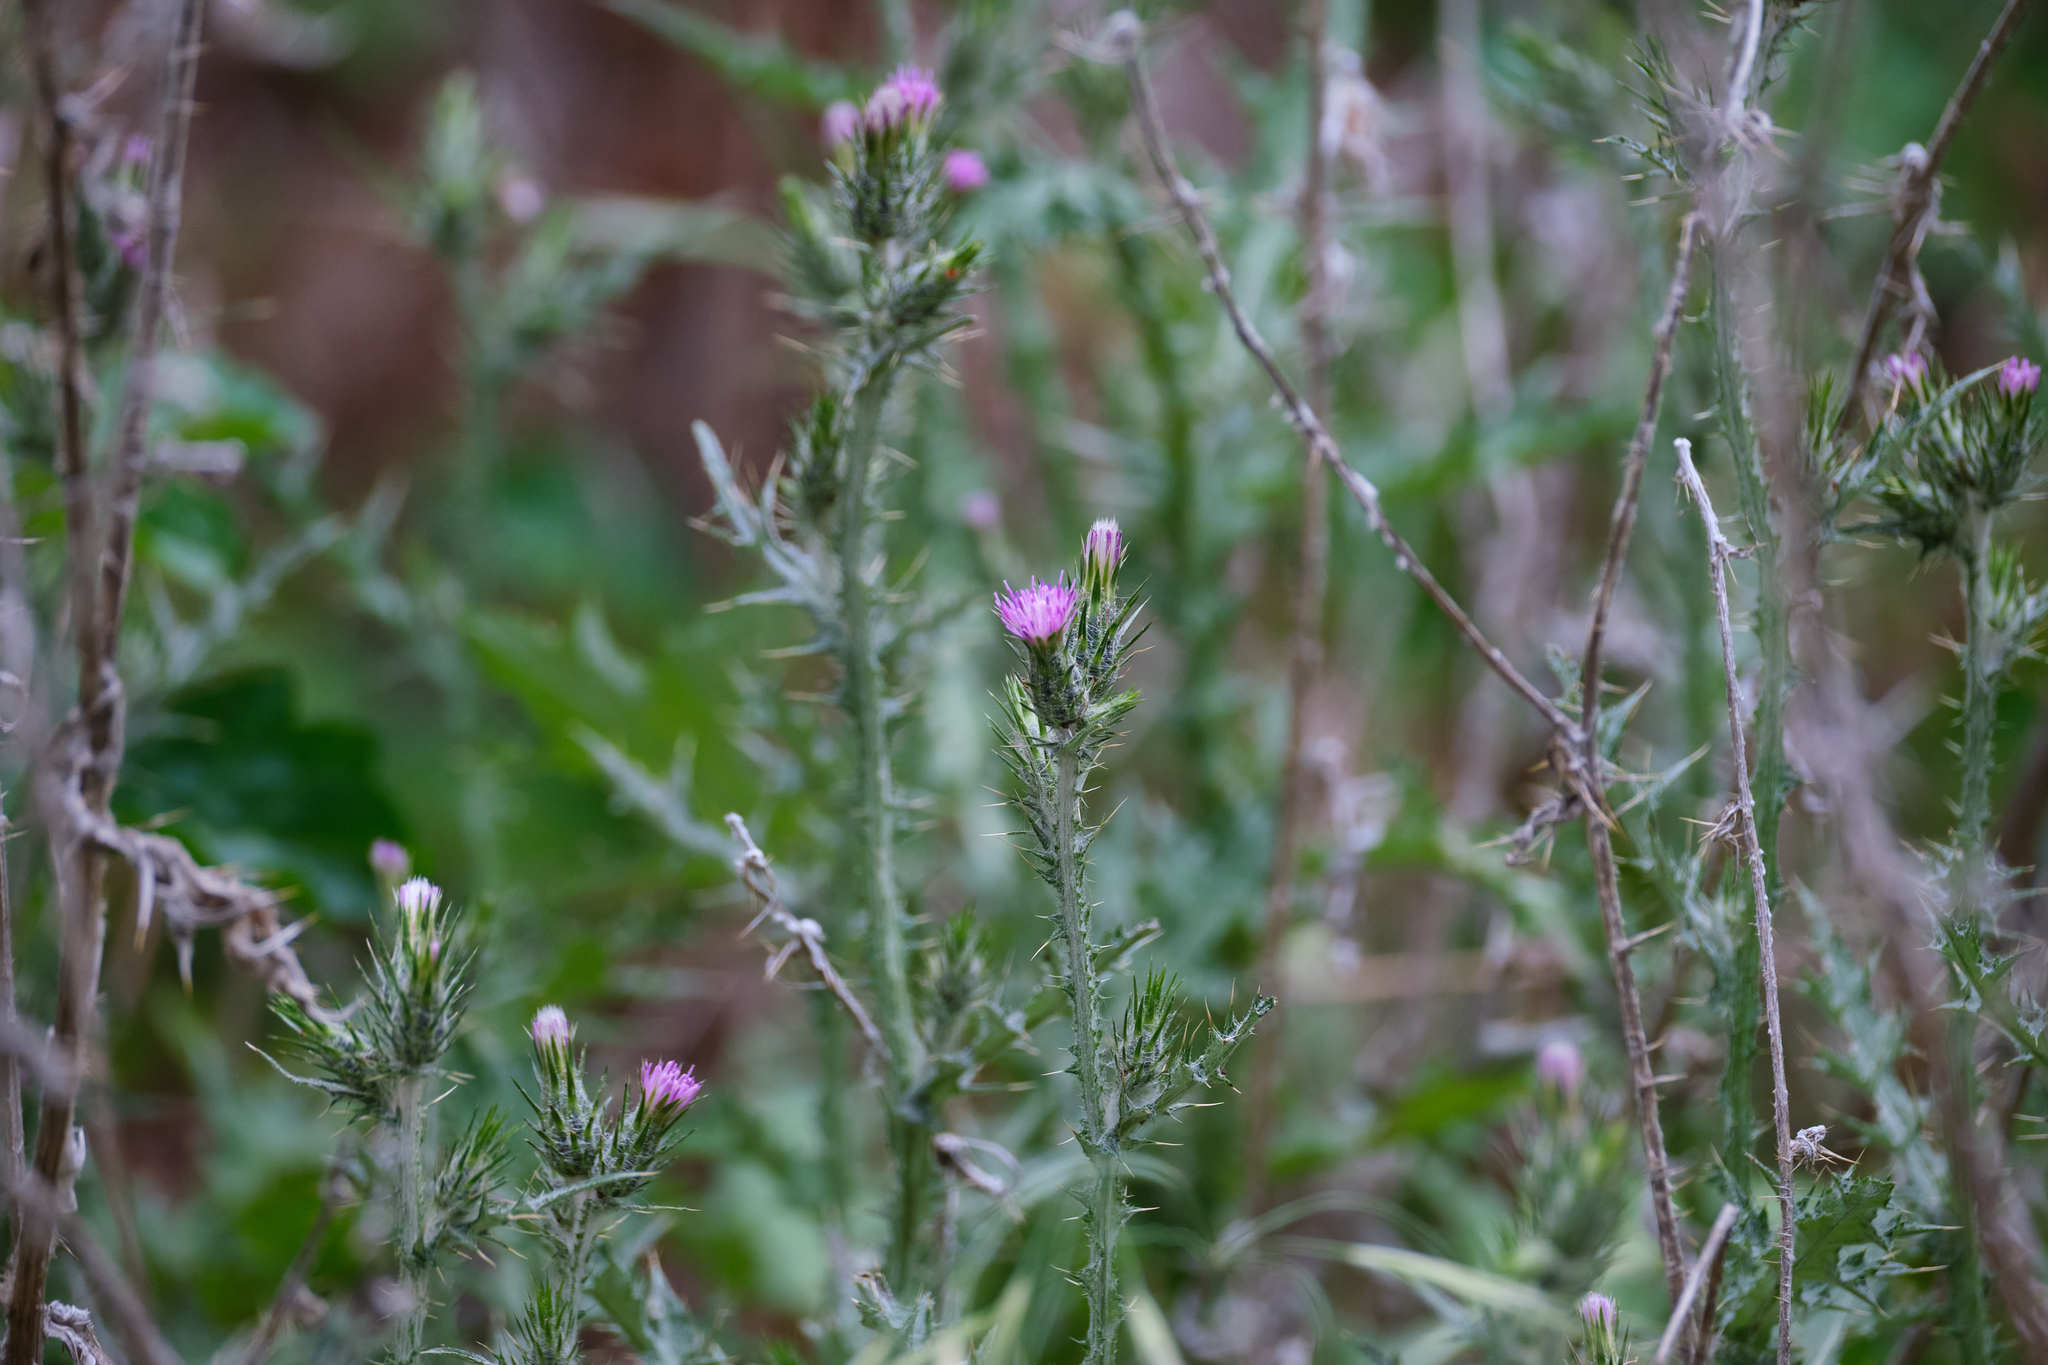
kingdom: Plantae
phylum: Tracheophyta
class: Magnoliopsida
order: Asterales
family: Asteraceae
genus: Carduus
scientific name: Carduus pycnocephalus
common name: Plymouth thistle
